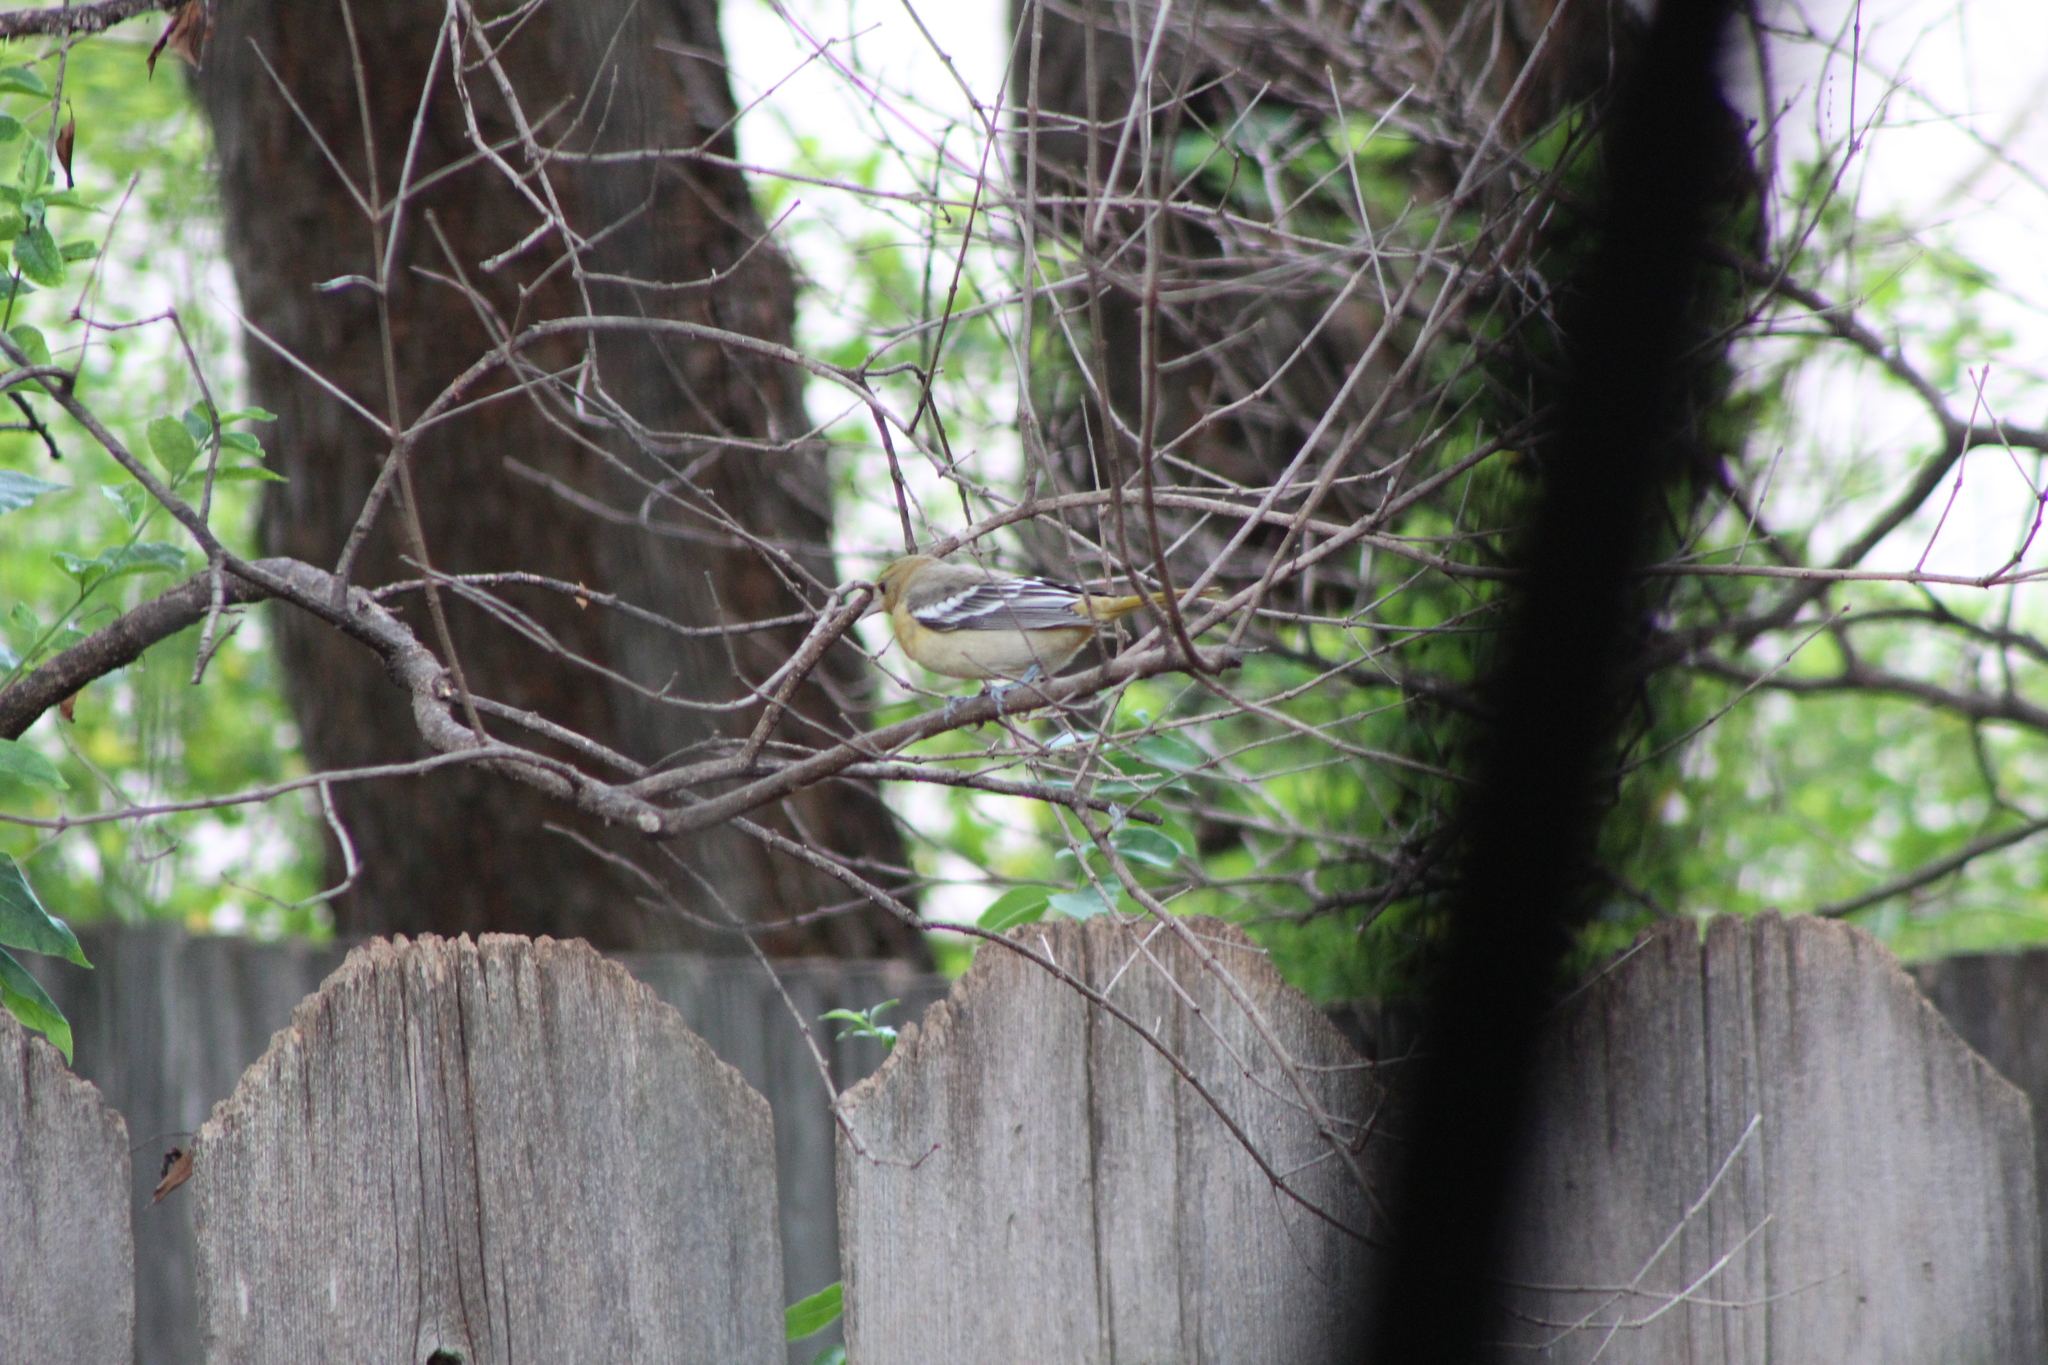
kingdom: Animalia
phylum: Chordata
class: Aves
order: Passeriformes
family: Icteridae
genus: Icterus
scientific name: Icterus galbula
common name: Baltimore oriole
